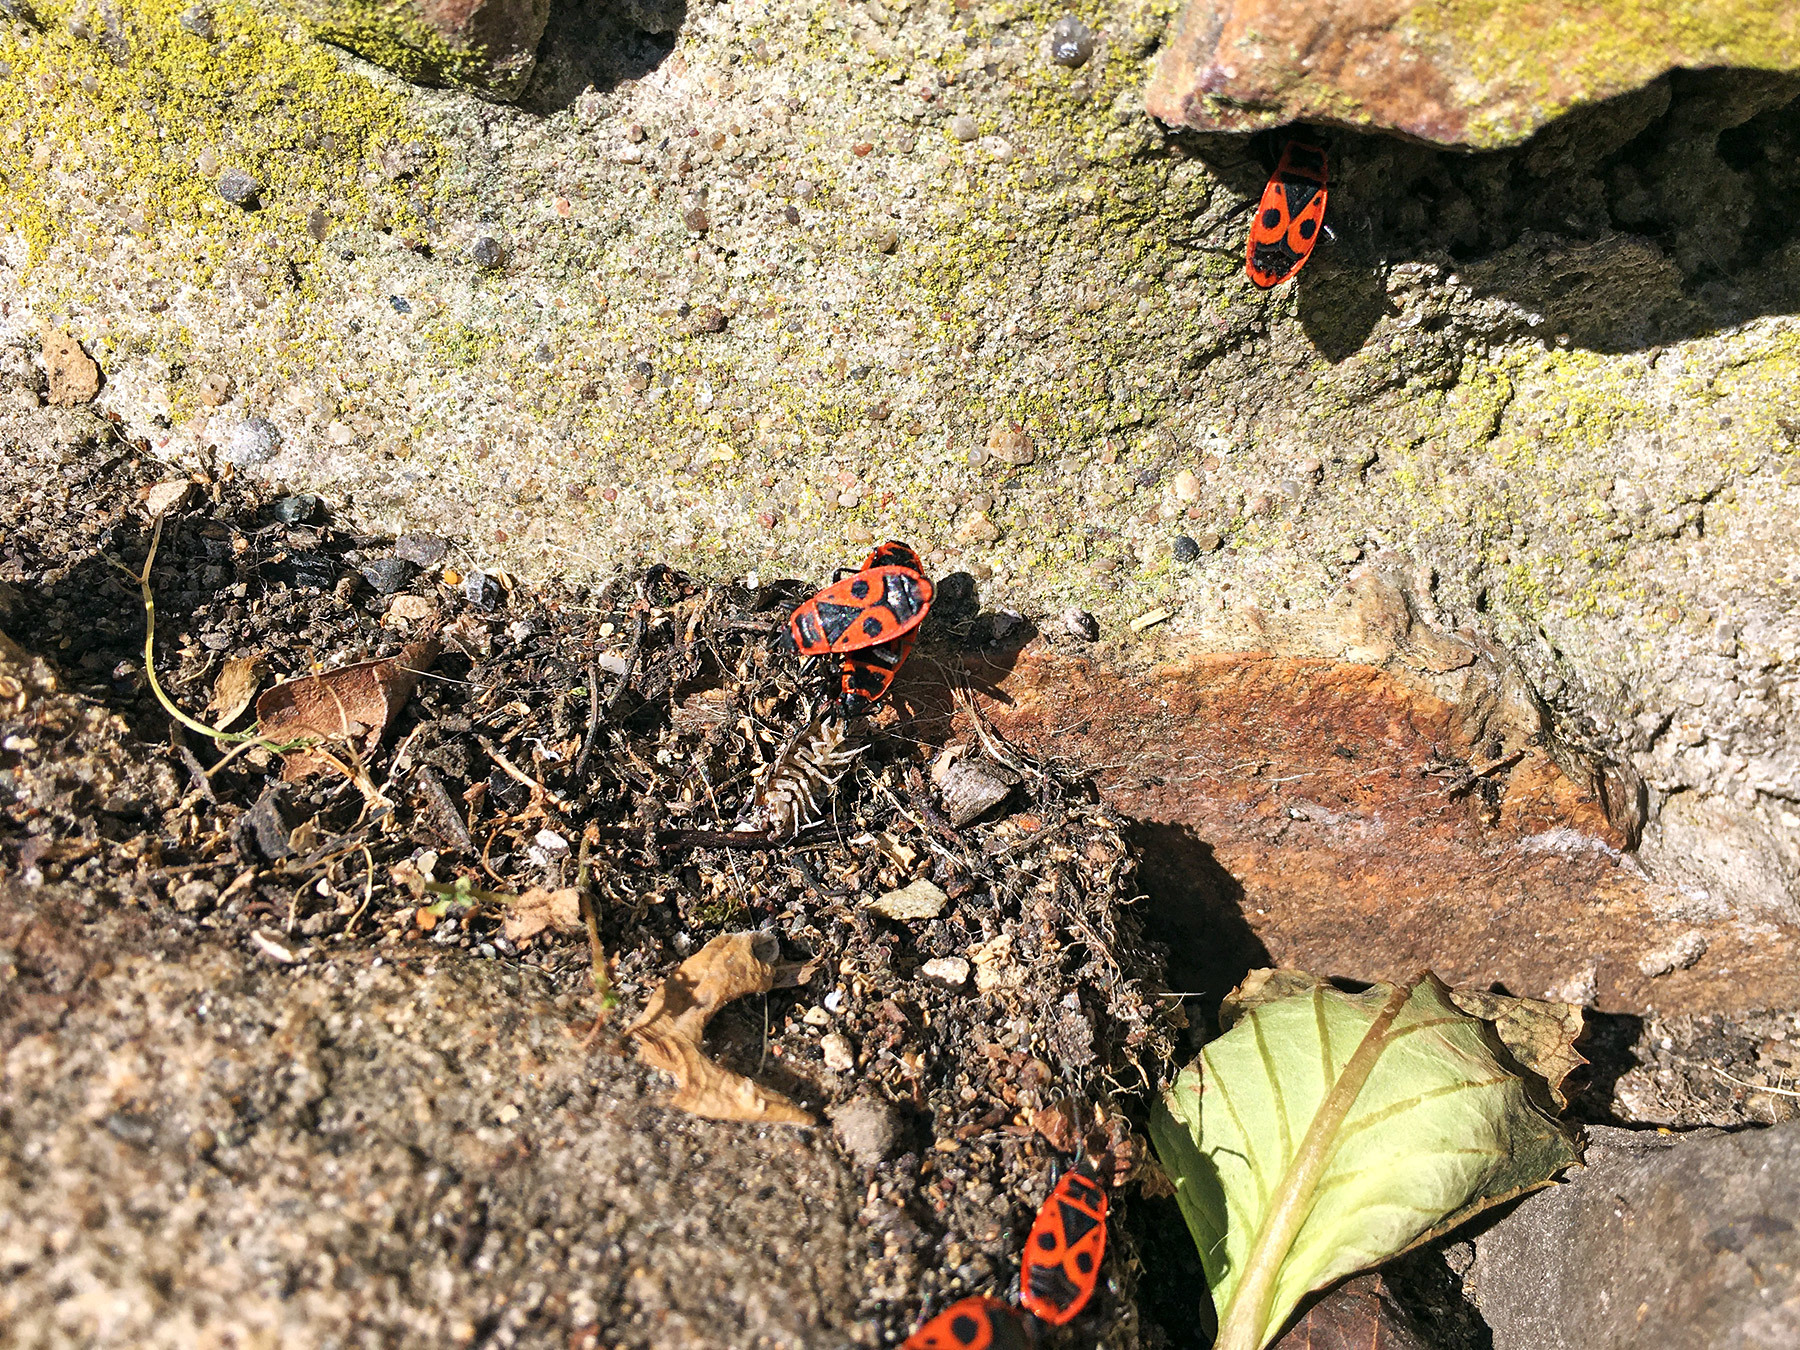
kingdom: Animalia
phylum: Arthropoda
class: Insecta
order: Hemiptera
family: Pyrrhocoridae
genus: Pyrrhocoris
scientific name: Pyrrhocoris apterus
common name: Firebug
